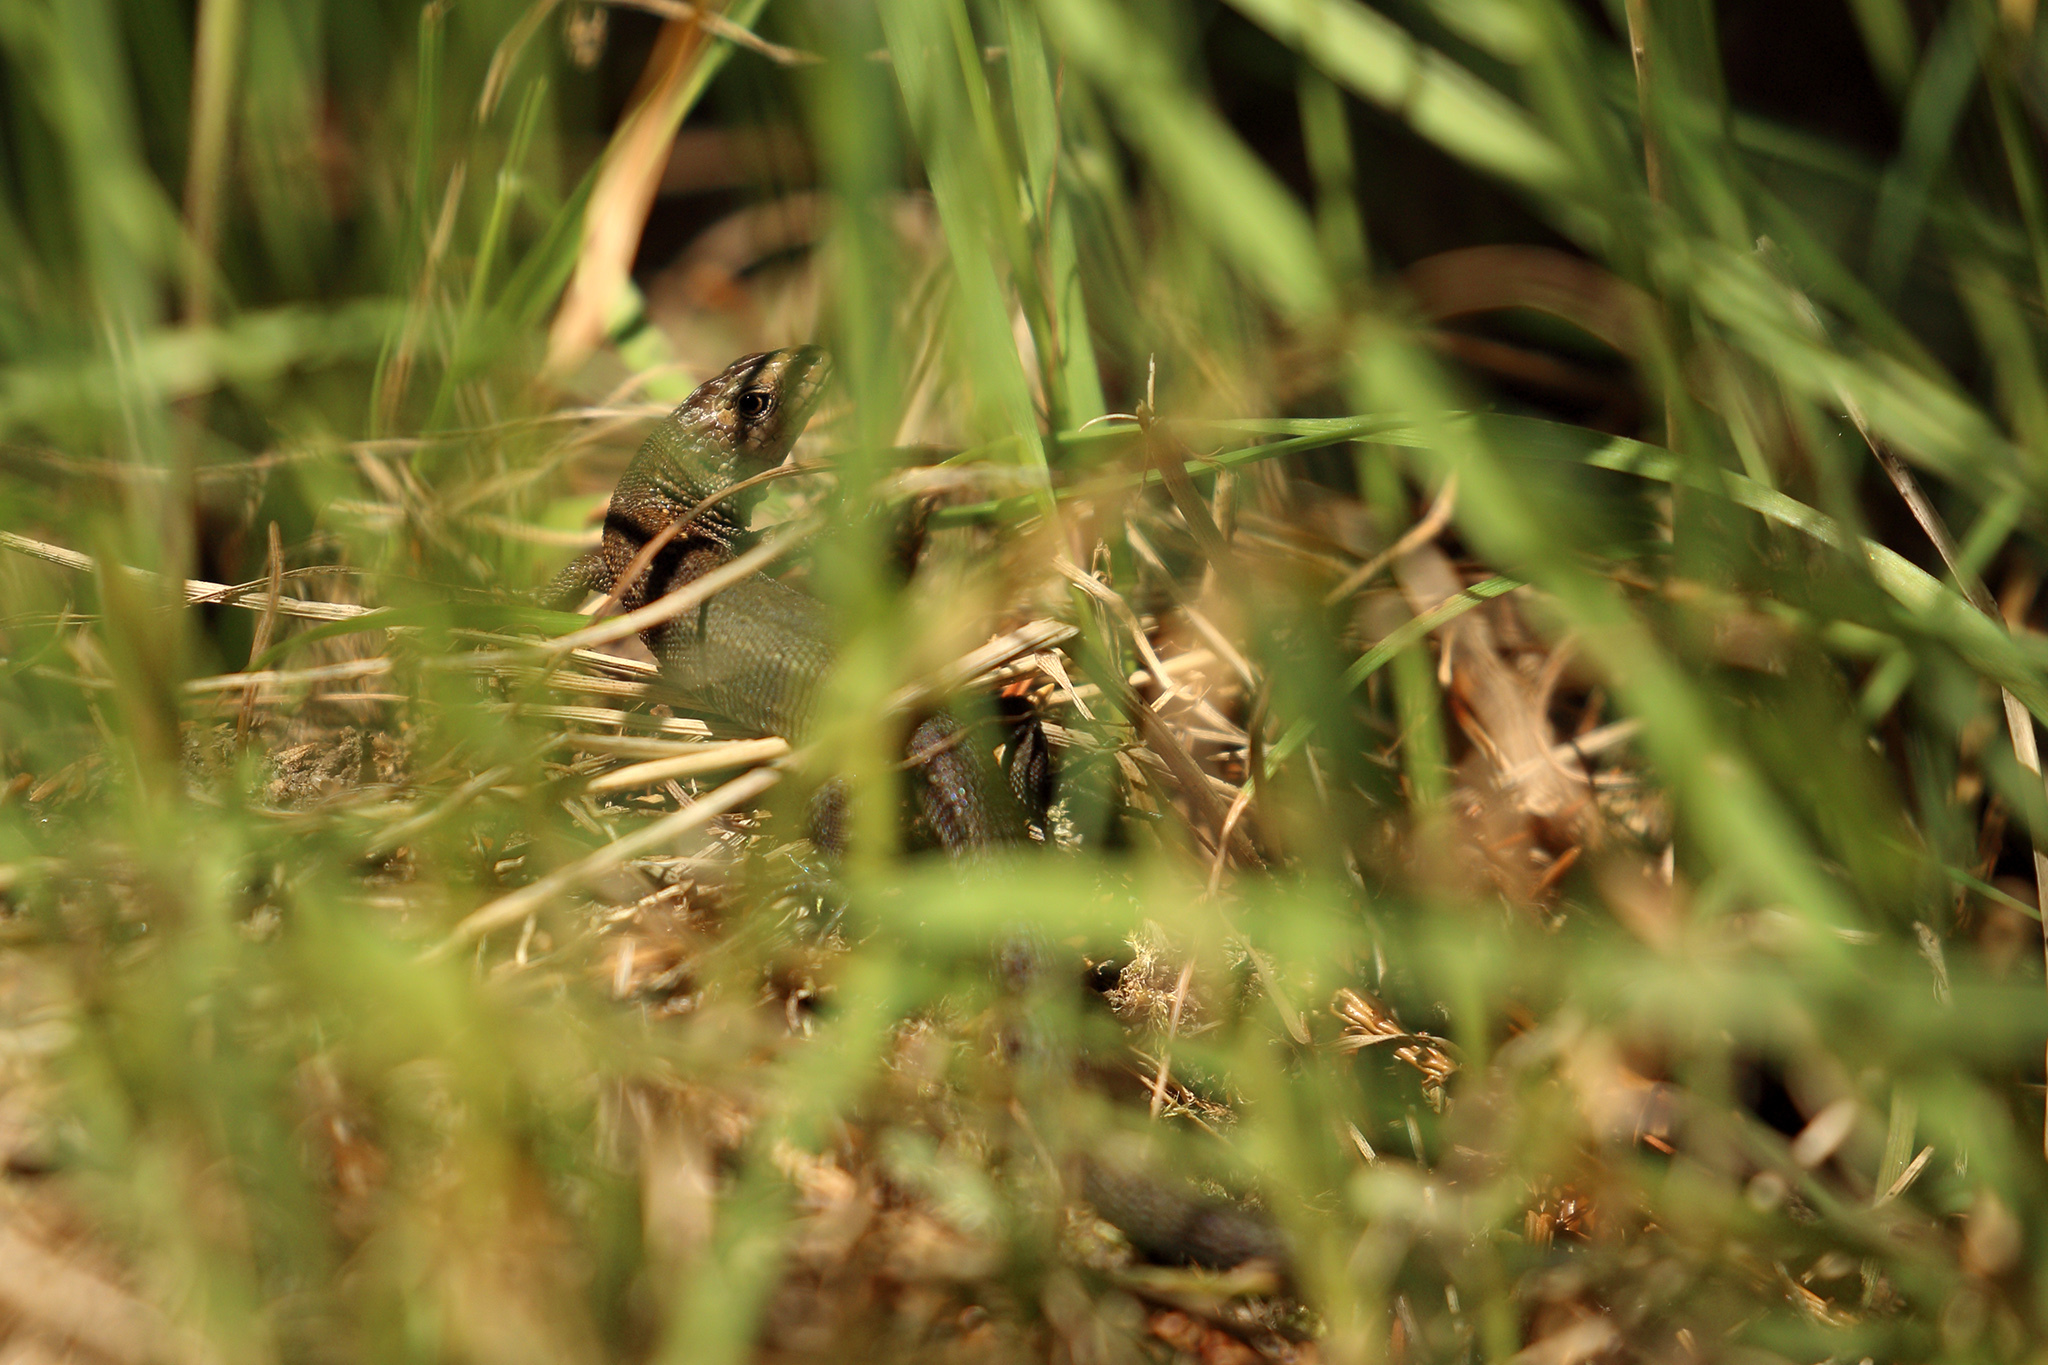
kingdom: Animalia
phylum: Chordata
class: Squamata
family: Lacertidae
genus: Zootoca
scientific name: Zootoca vivipara
